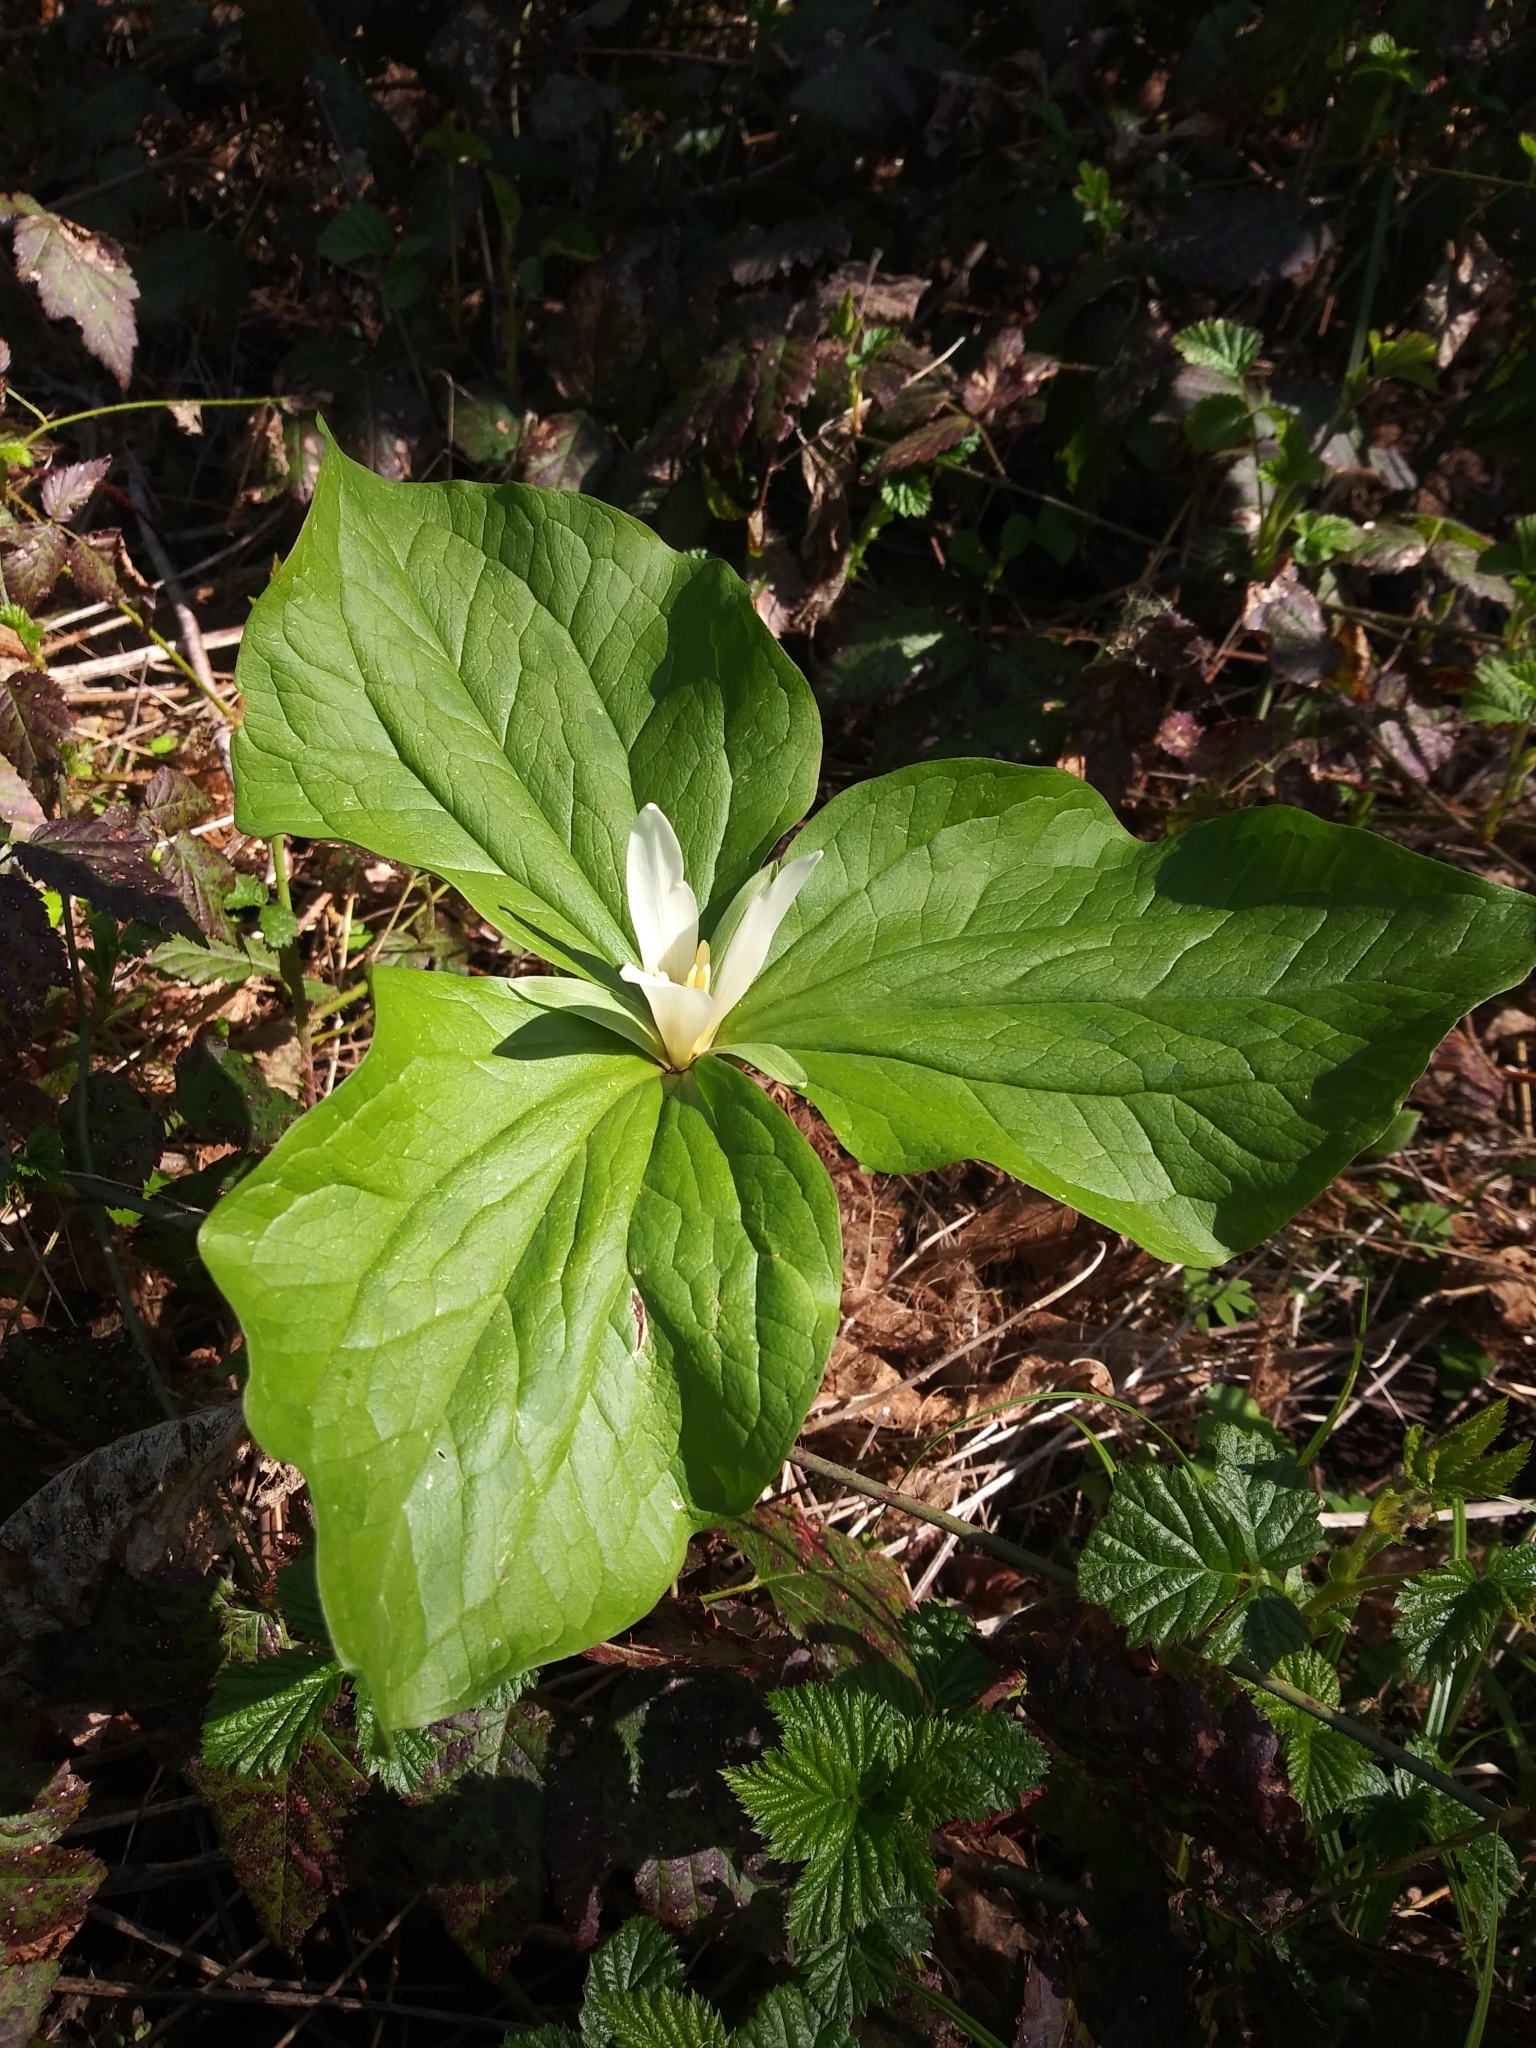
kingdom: Plantae
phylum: Tracheophyta
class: Liliopsida
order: Liliales
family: Melanthiaceae
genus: Trillium
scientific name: Trillium albidum
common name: Freeman's trillium
